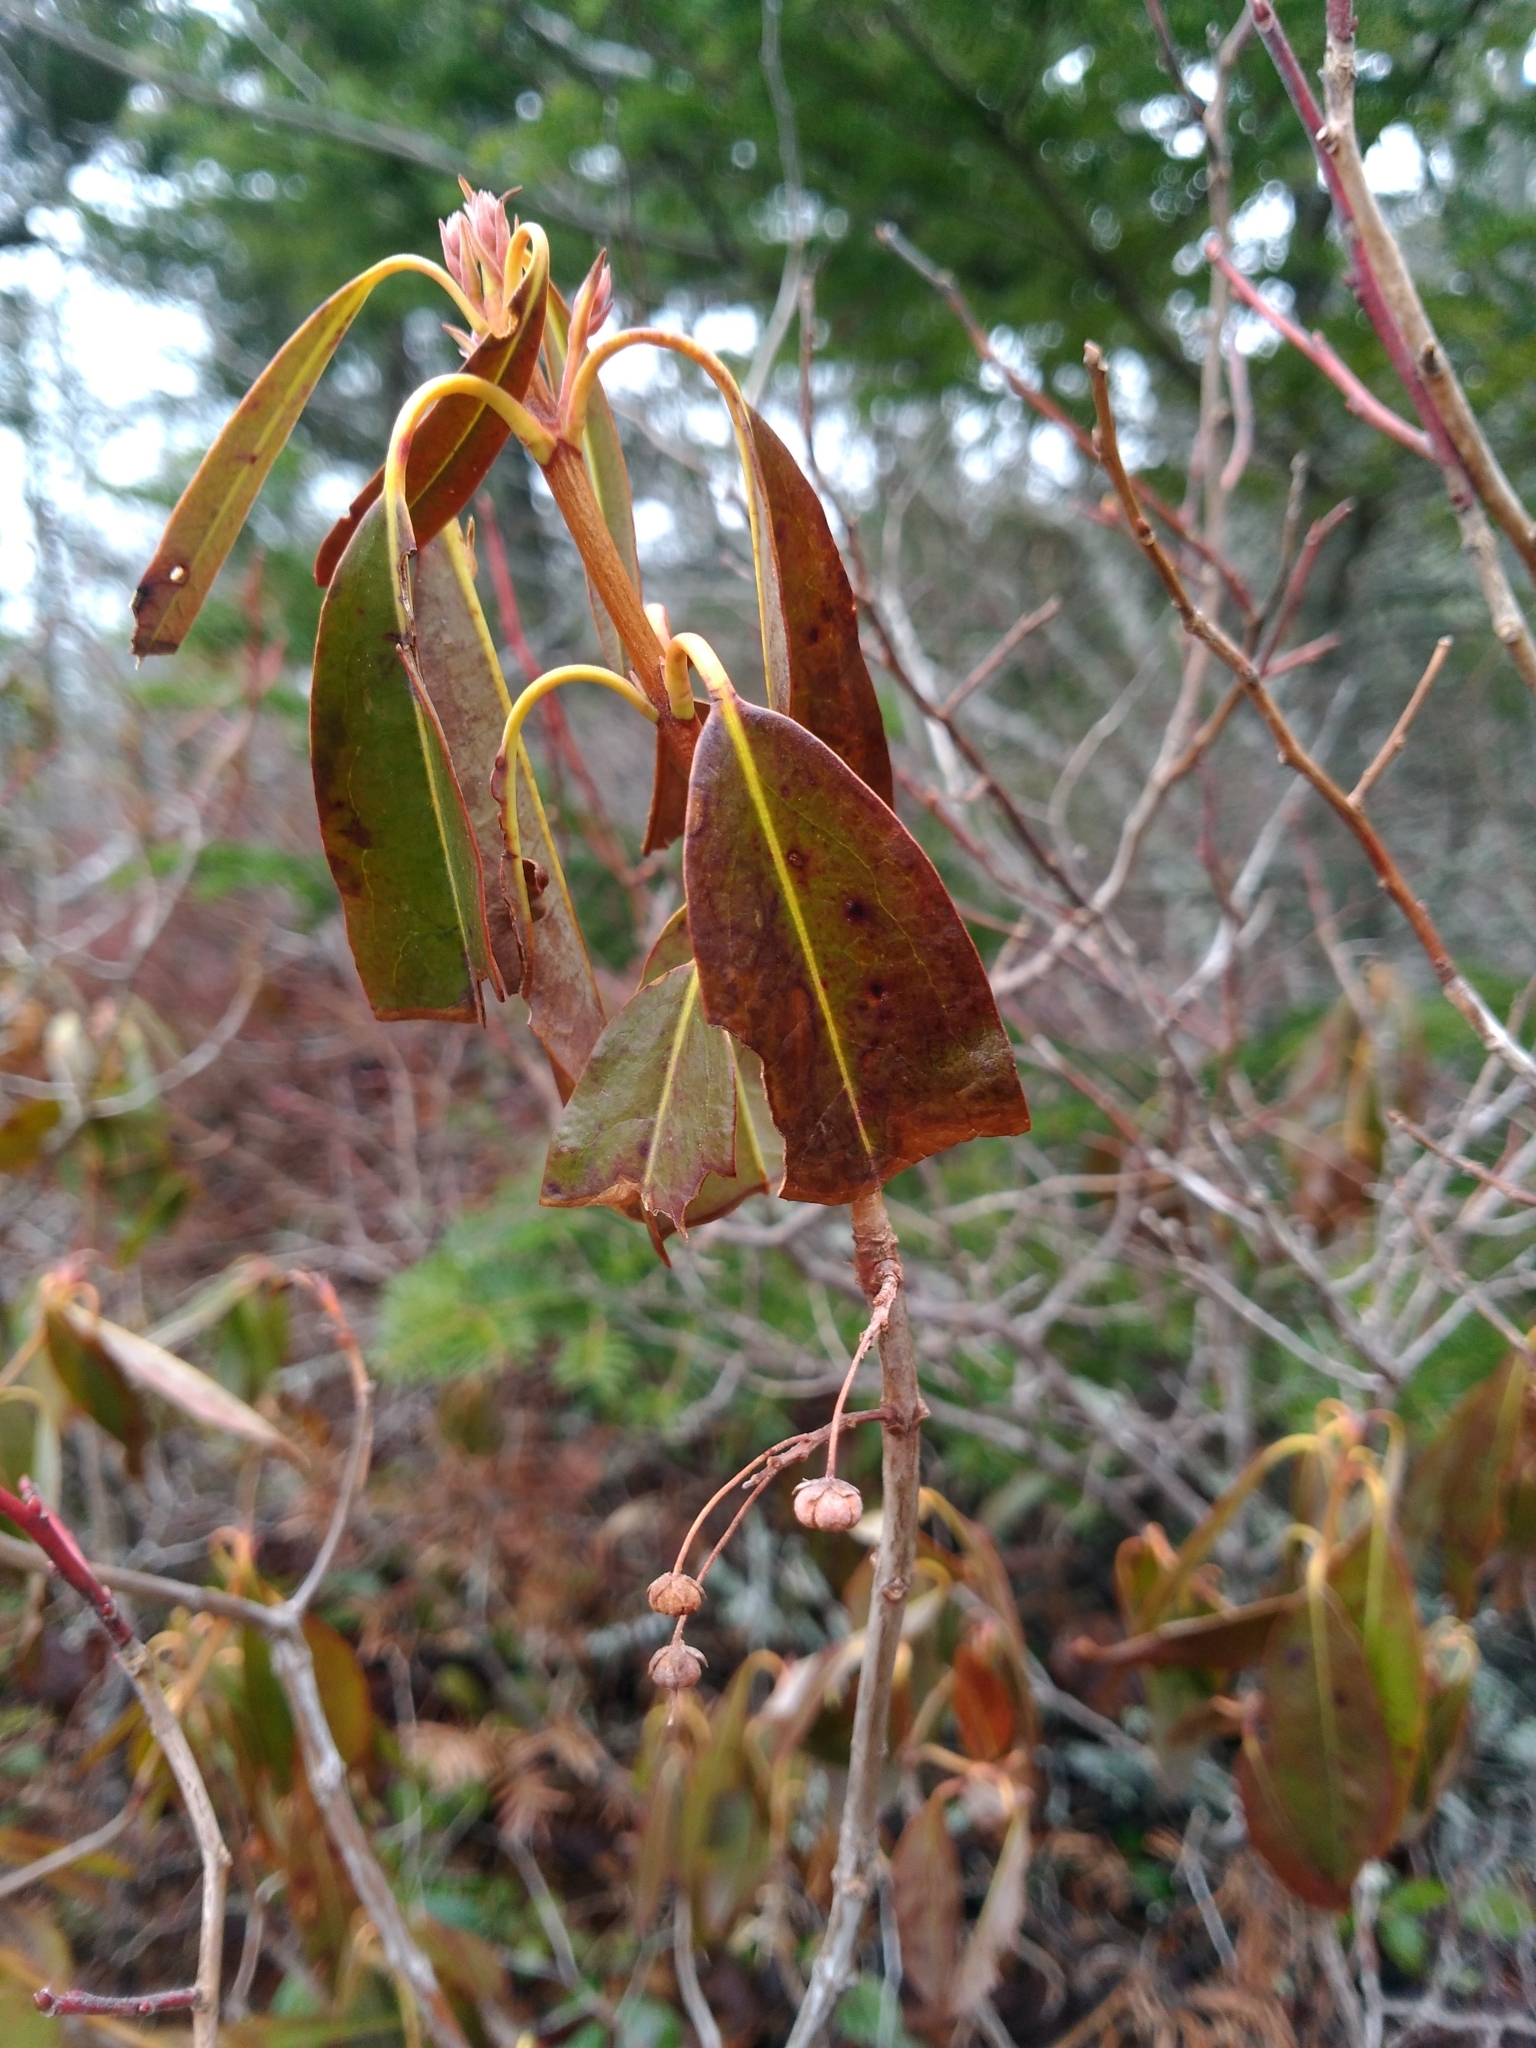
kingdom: Plantae
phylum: Tracheophyta
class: Magnoliopsida
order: Ericales
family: Ericaceae
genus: Kalmia
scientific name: Kalmia angustifolia
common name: Sheep-laurel
